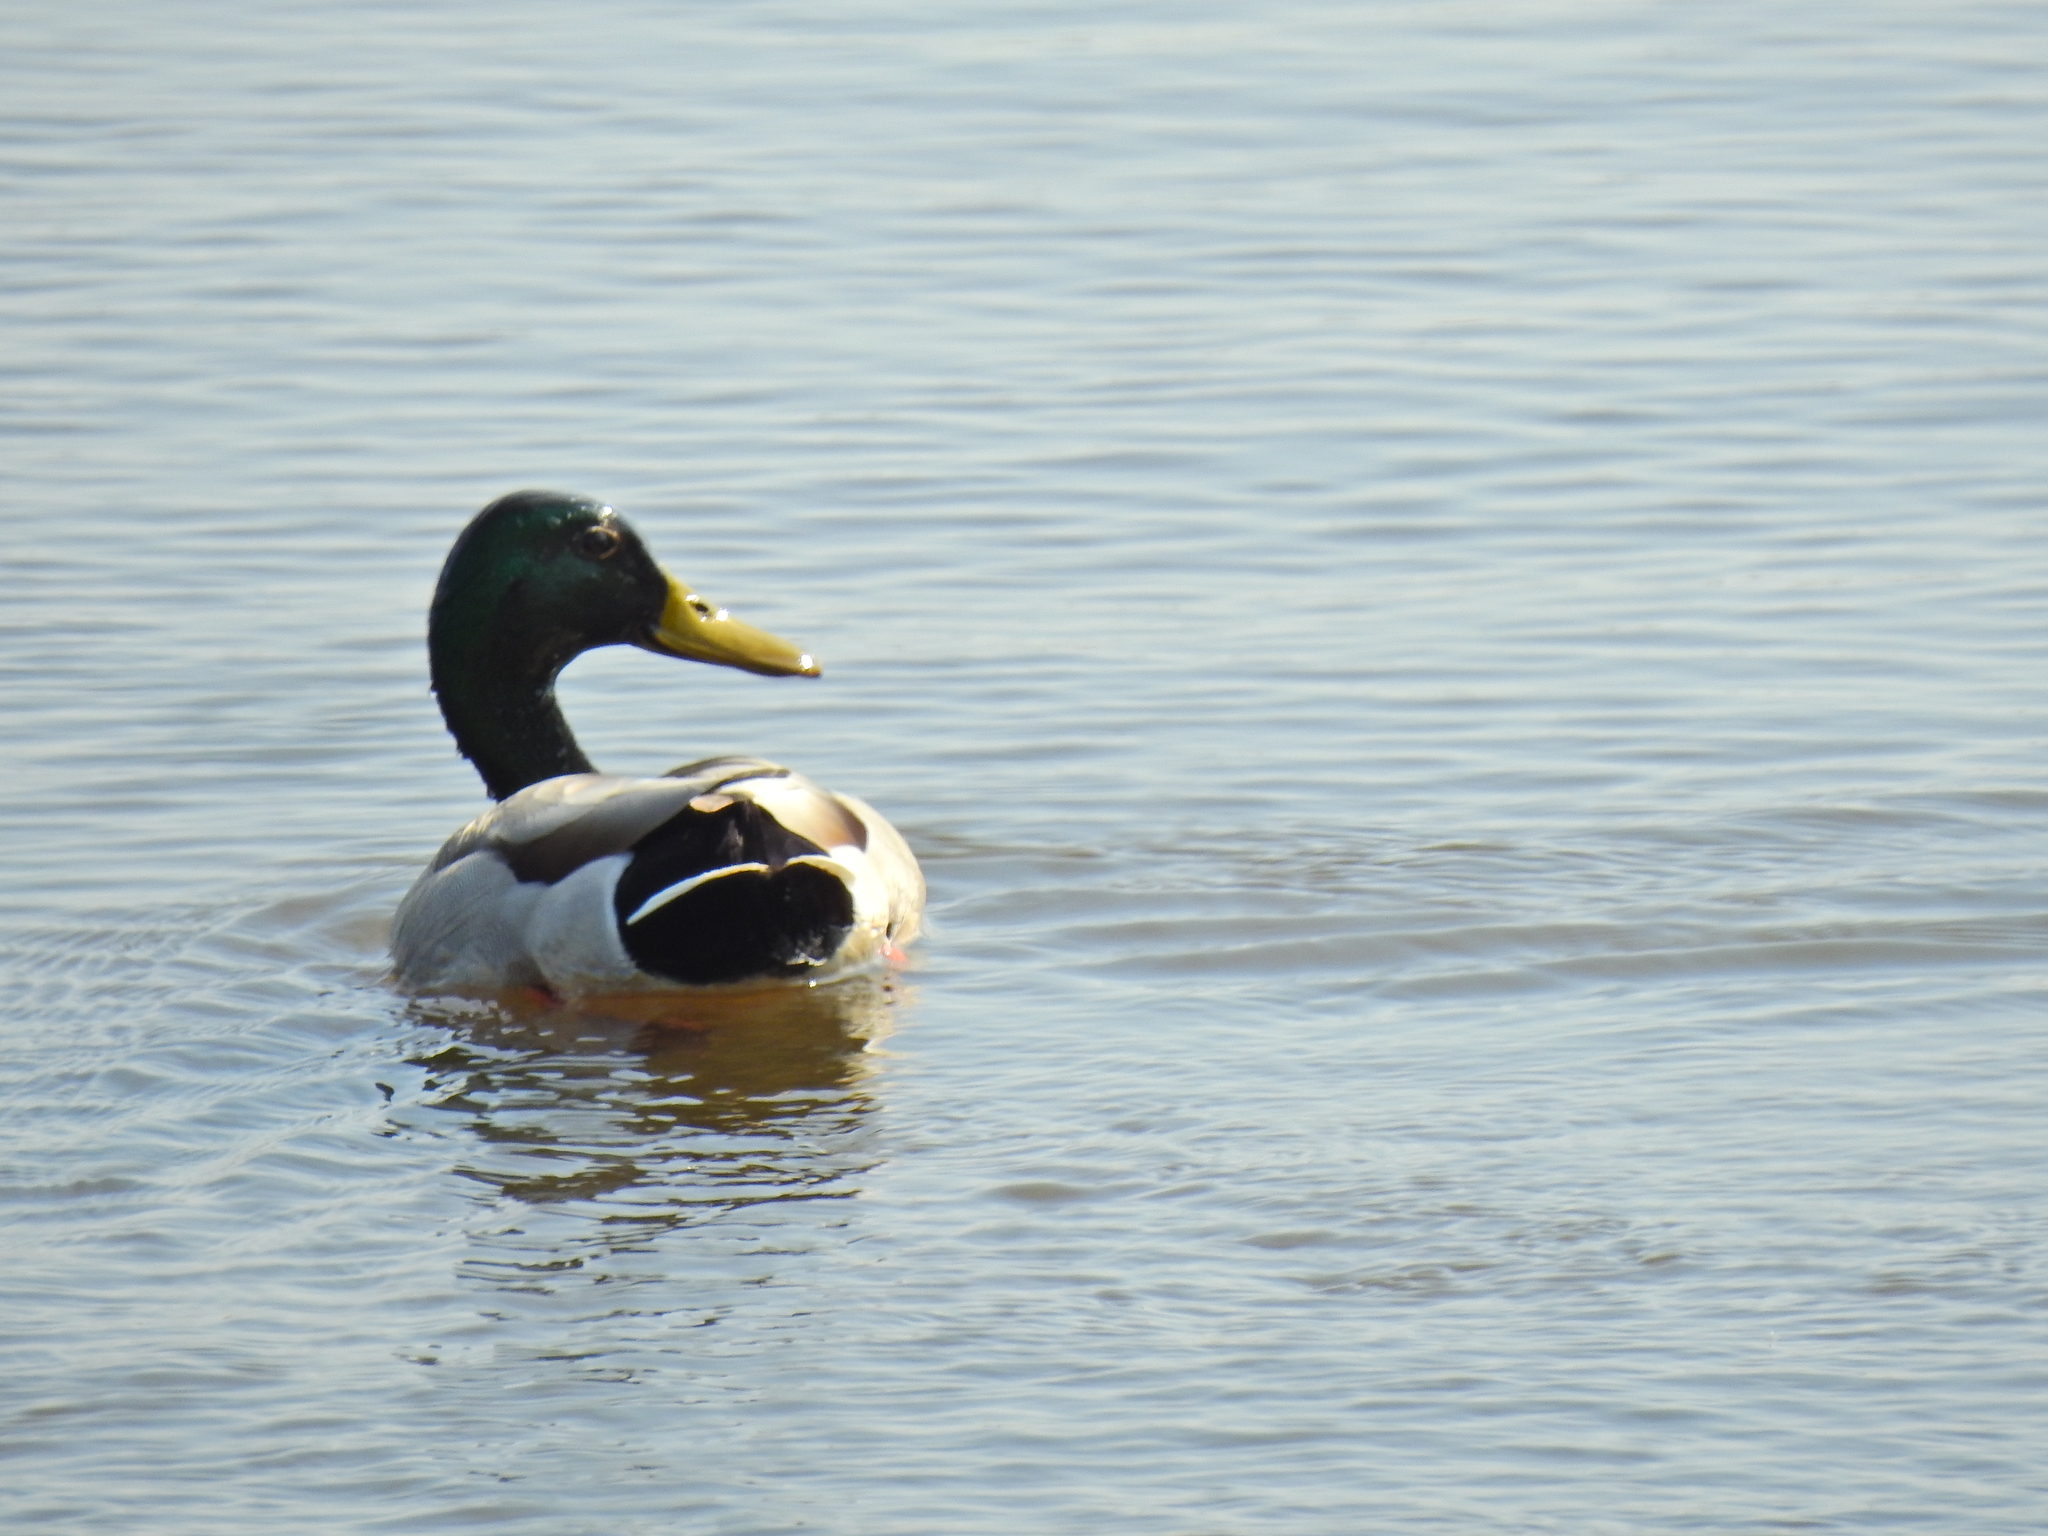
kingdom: Animalia
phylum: Chordata
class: Aves
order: Anseriformes
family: Anatidae
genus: Anas
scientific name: Anas platyrhynchos
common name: Mallard
